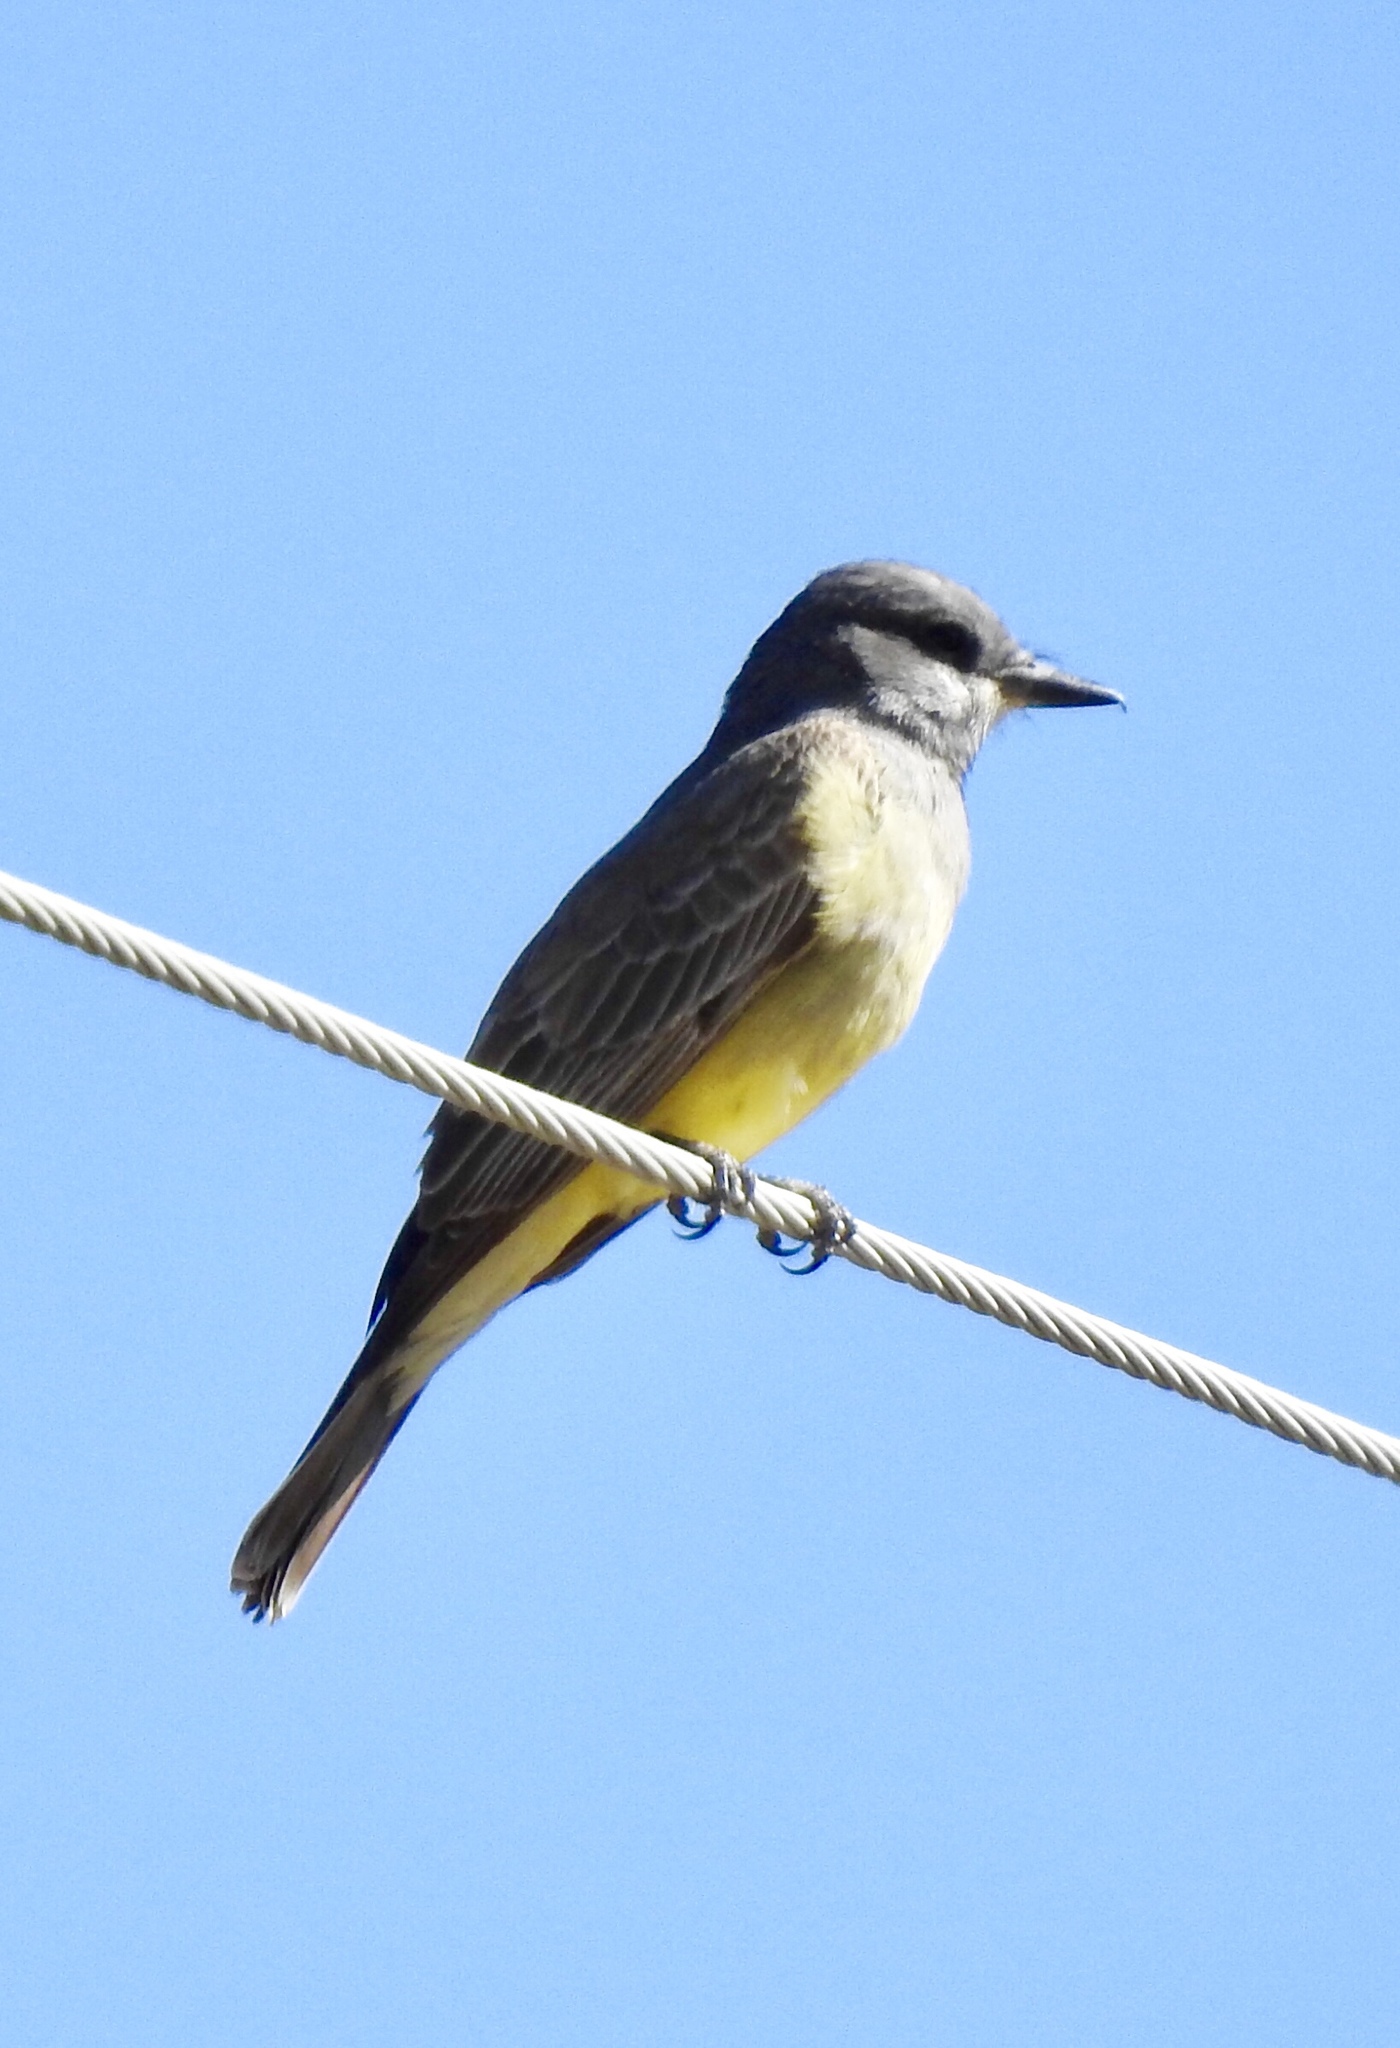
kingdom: Animalia
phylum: Chordata
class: Aves
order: Passeriformes
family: Tyrannidae
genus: Tyrannus
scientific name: Tyrannus vociferans
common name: Cassin's kingbird
